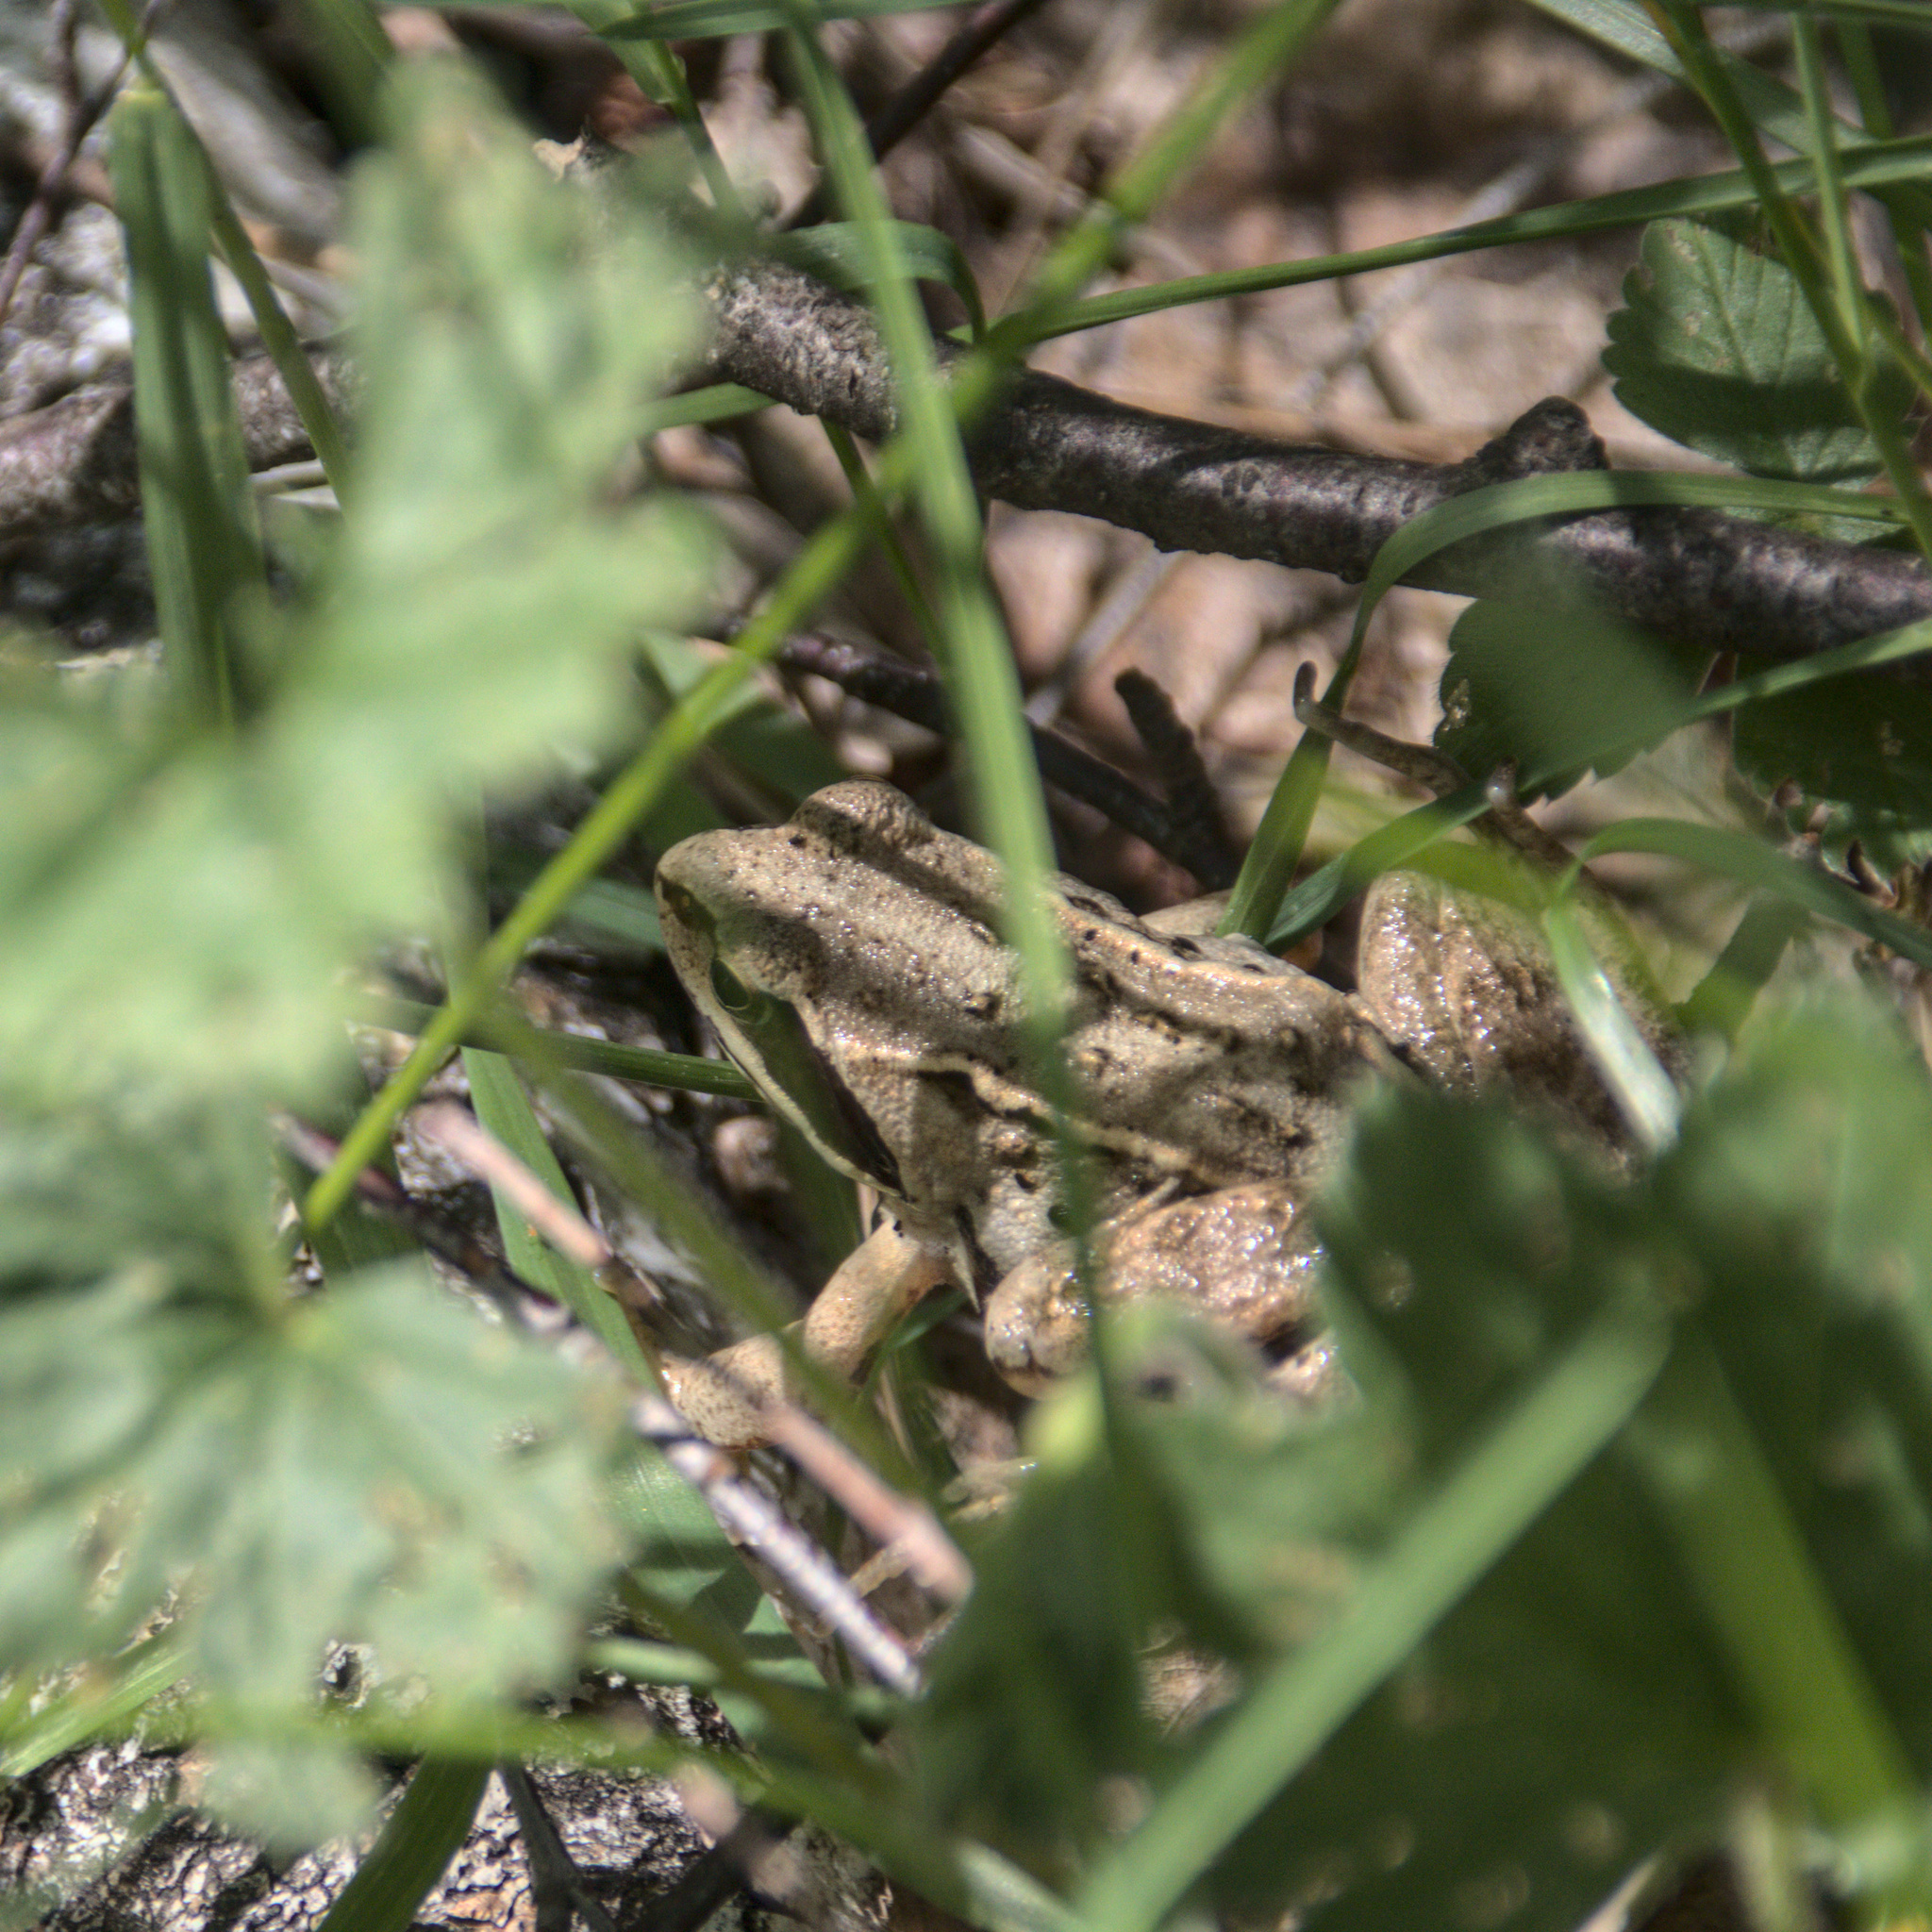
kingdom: Animalia
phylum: Chordata
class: Amphibia
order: Anura
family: Ranidae
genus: Rana
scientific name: Rana arvalis
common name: Moor frog
